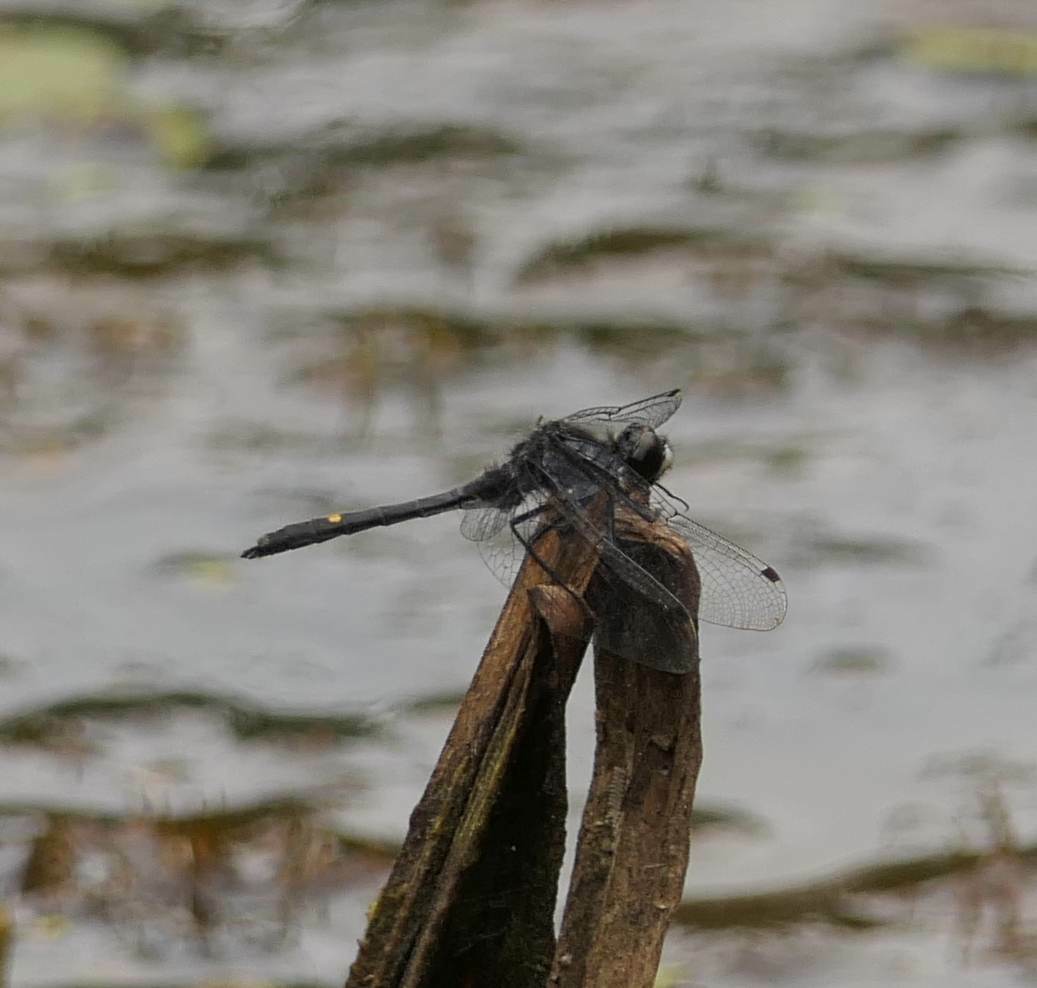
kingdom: Animalia
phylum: Arthropoda
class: Insecta
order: Odonata
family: Libellulidae
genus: Leucorrhinia
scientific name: Leucorrhinia intacta
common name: Dot-tailed whiteface
